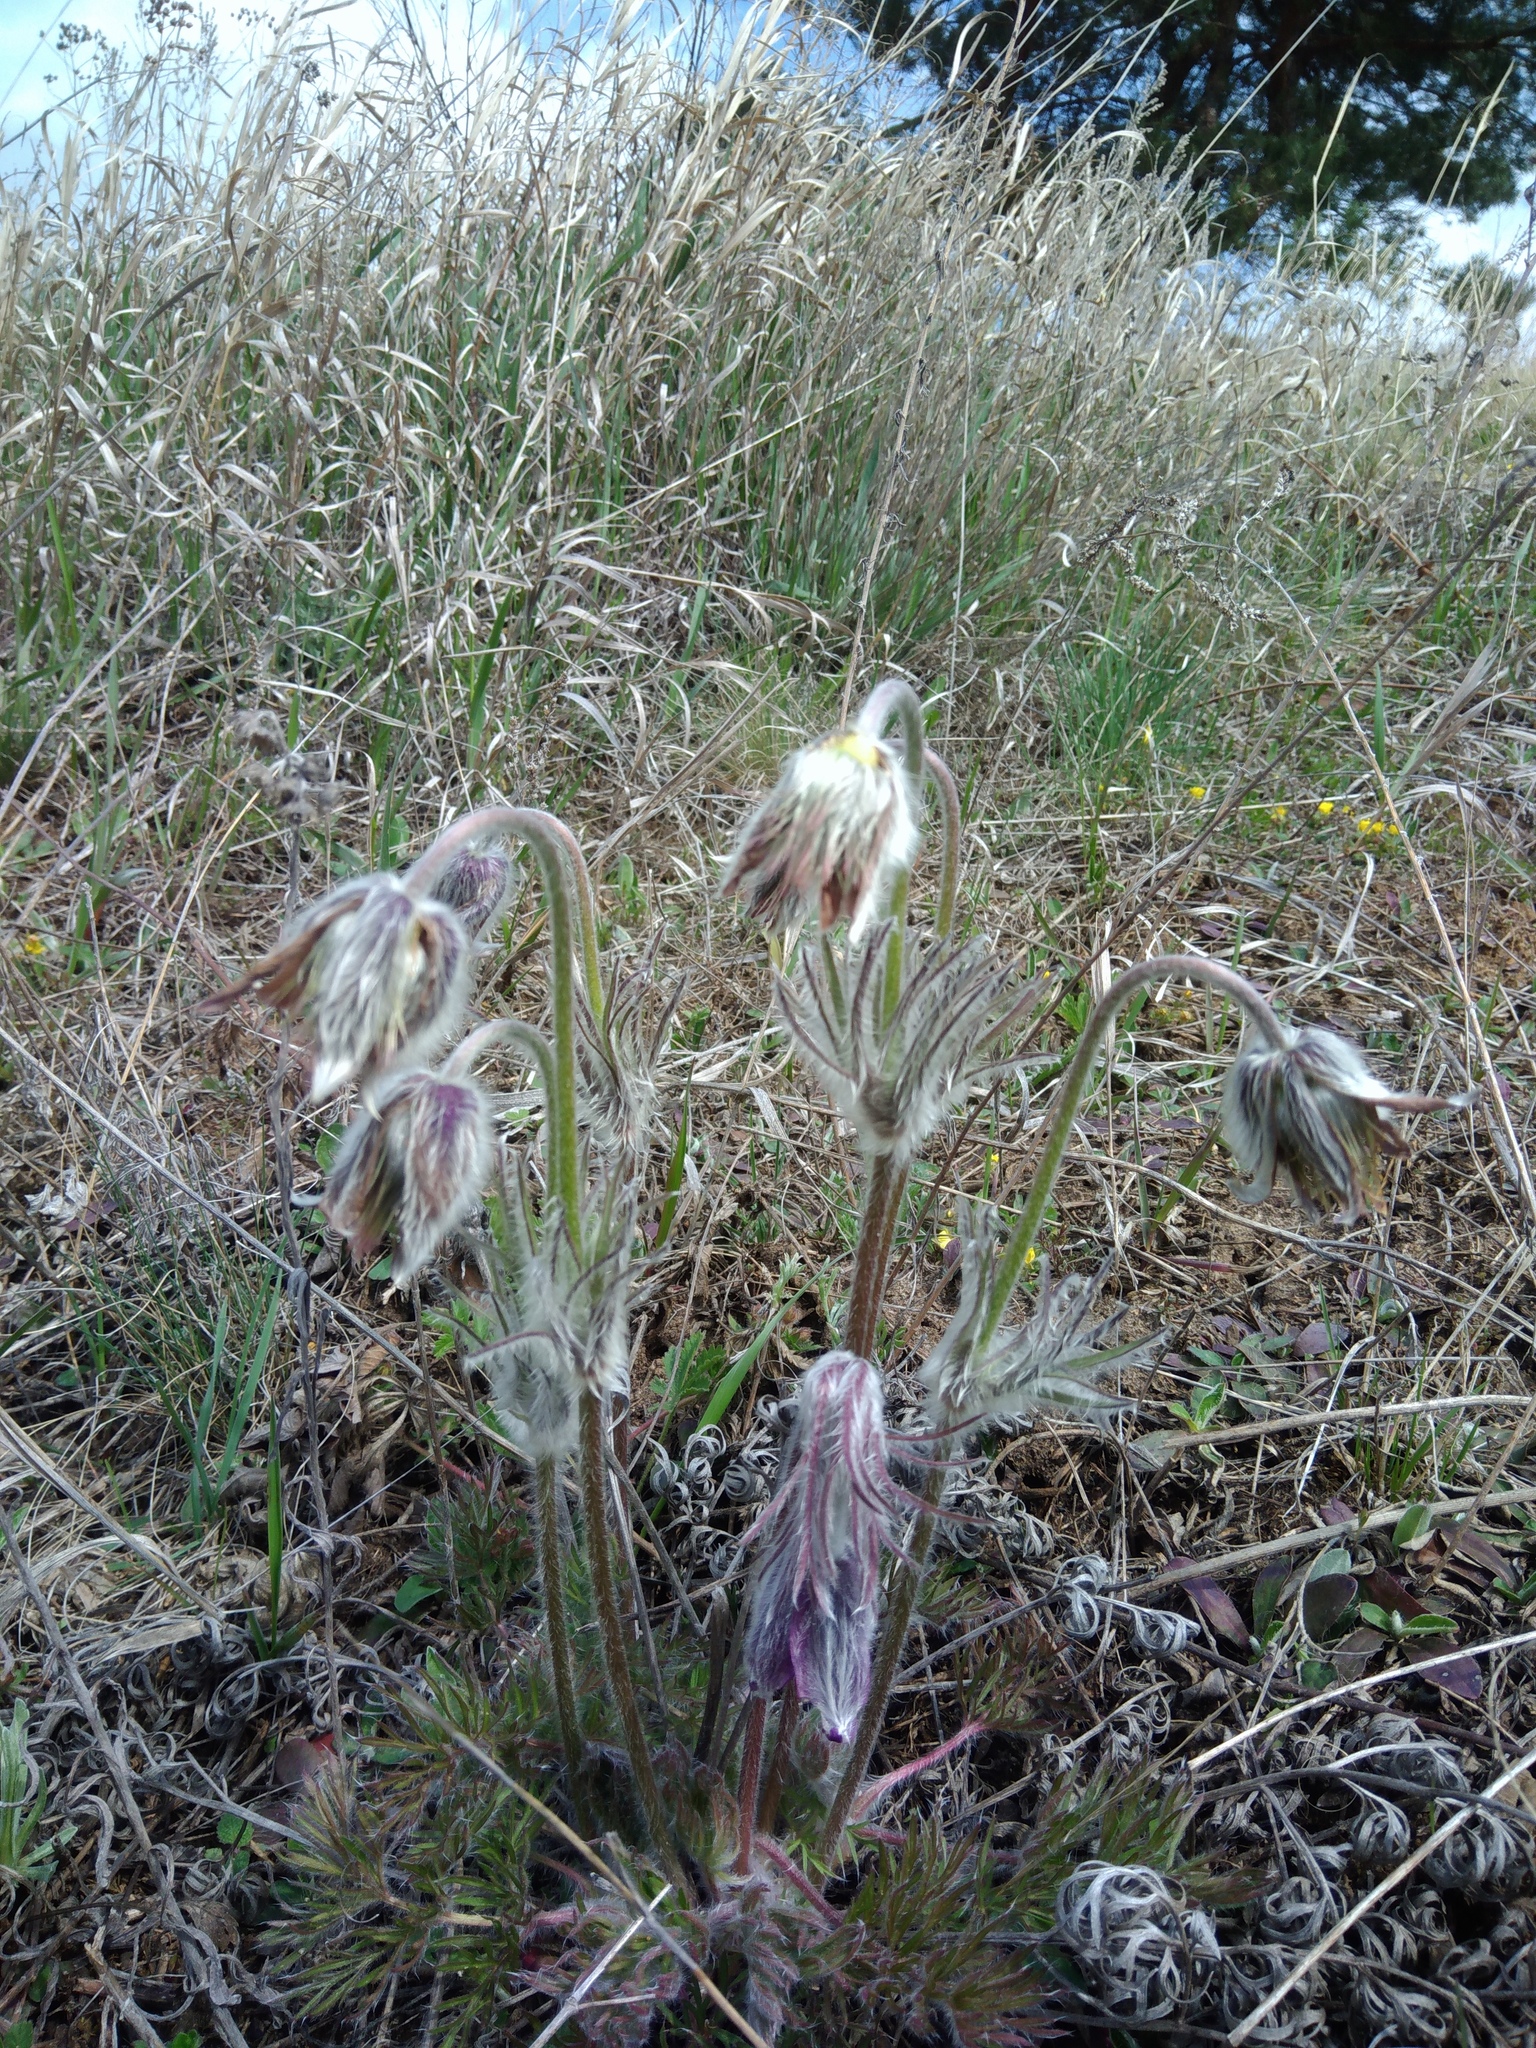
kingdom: Plantae
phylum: Tracheophyta
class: Magnoliopsida
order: Ranunculales
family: Ranunculaceae
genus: Pulsatilla
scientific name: Pulsatilla pratensis
